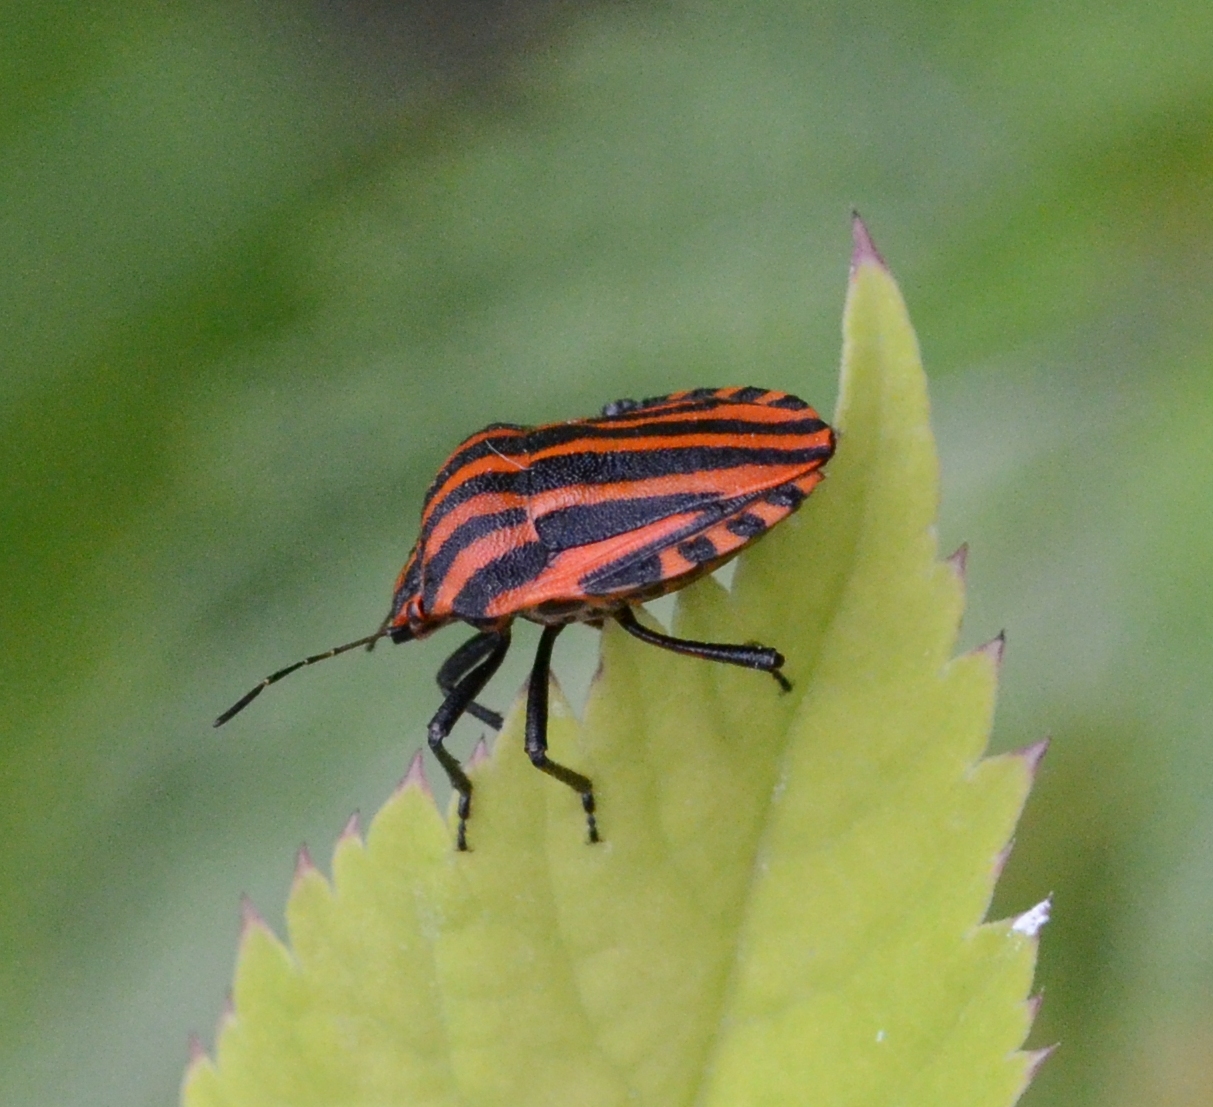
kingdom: Animalia
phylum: Arthropoda
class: Insecta
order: Hemiptera
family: Pentatomidae
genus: Graphosoma
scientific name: Graphosoma italicum
